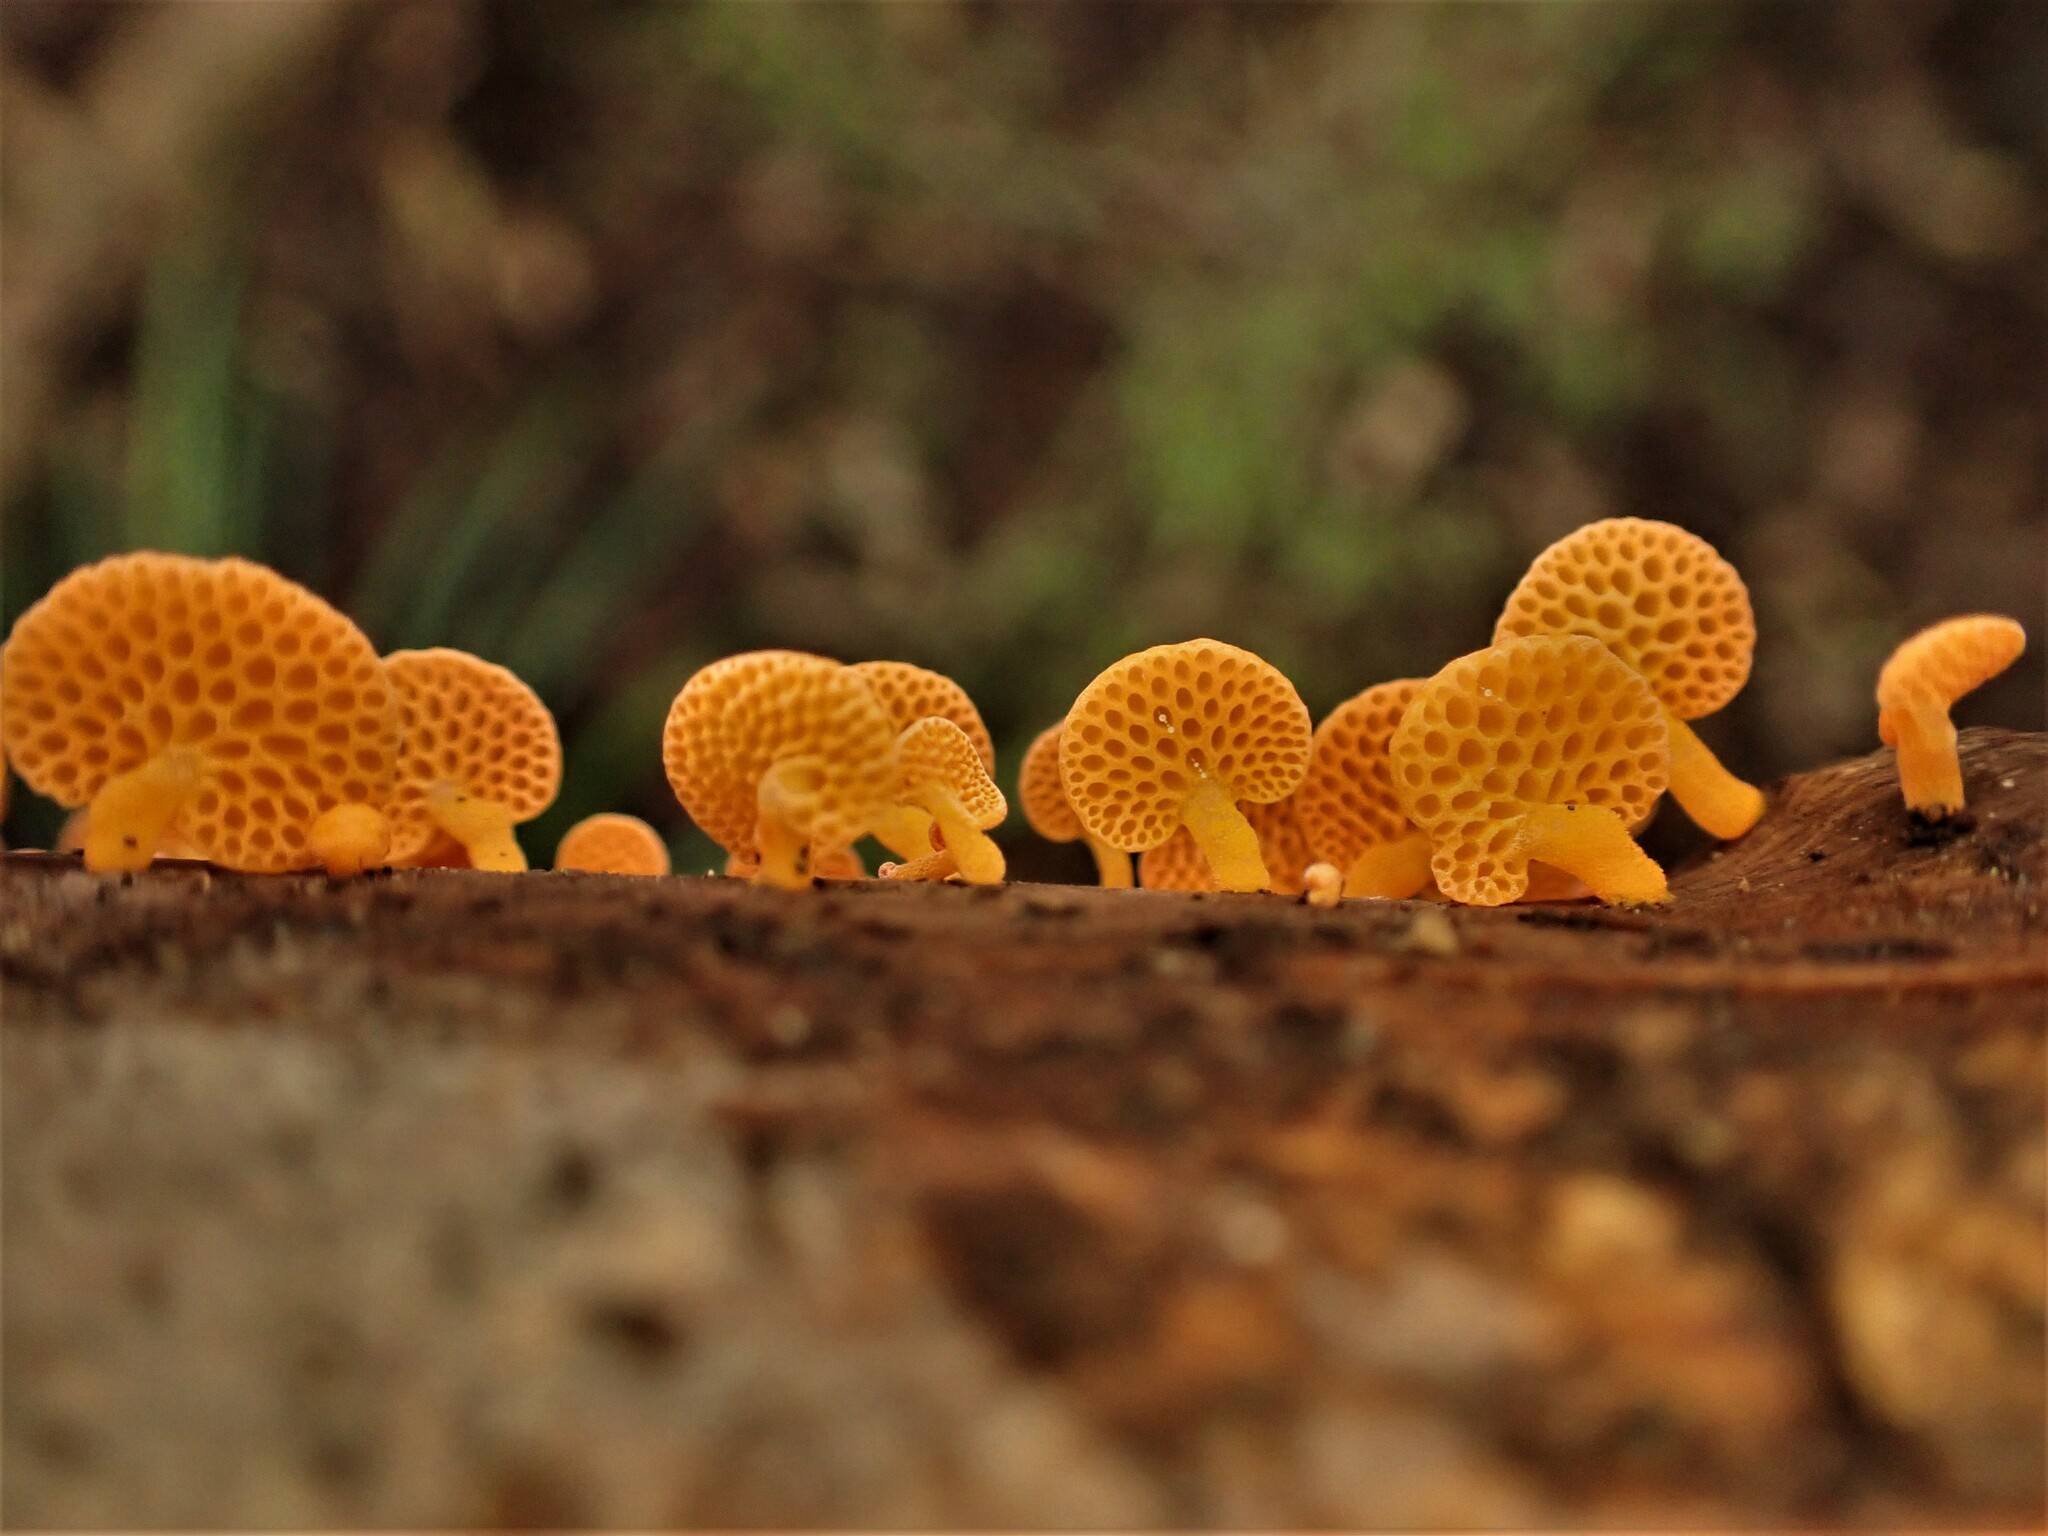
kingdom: Fungi
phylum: Basidiomycota
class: Agaricomycetes
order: Agaricales
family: Mycenaceae
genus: Favolaschia
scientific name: Favolaschia claudopus
